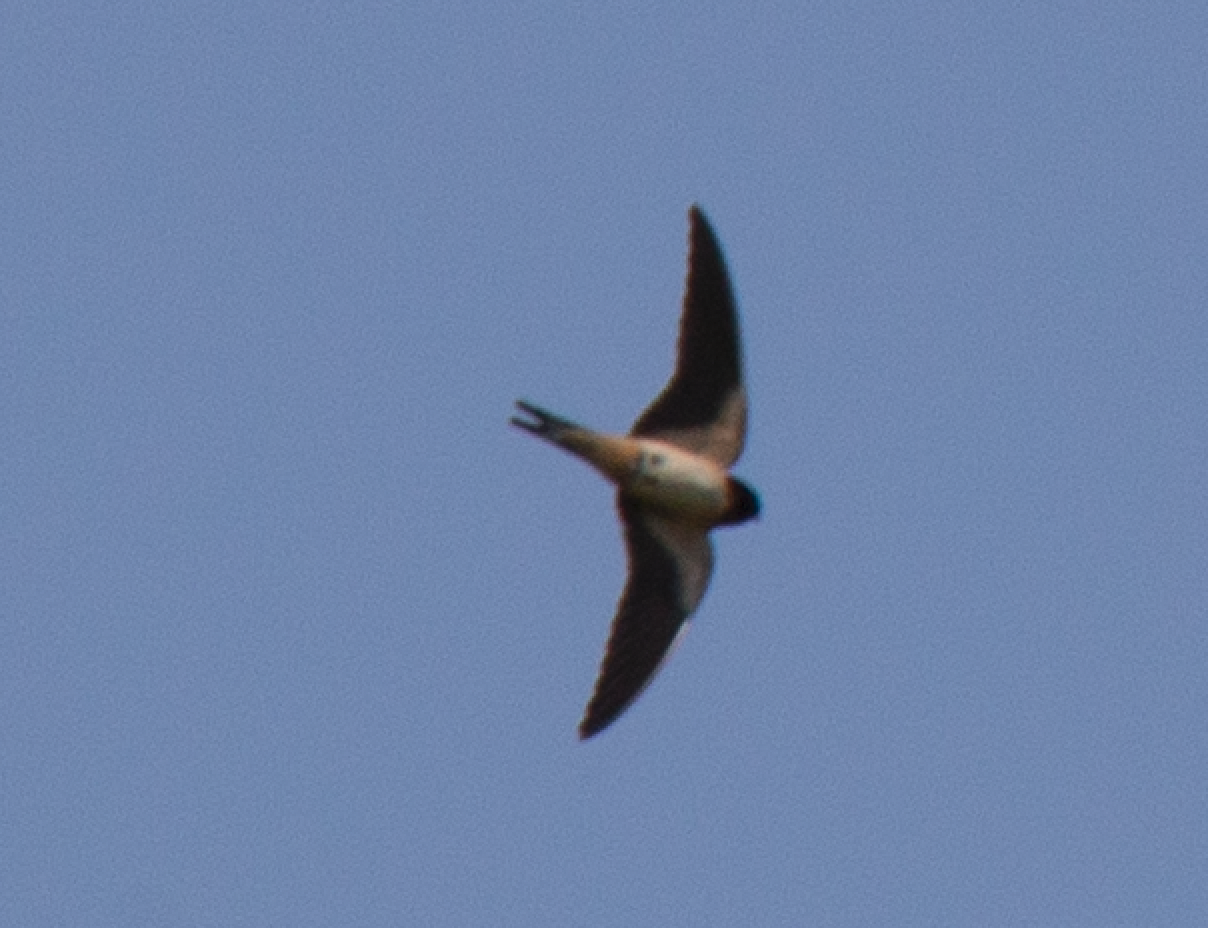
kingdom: Animalia
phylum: Chordata
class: Aves
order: Passeriformes
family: Hirundinidae
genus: Hirundo
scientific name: Hirundo rustica
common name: Barn swallow
